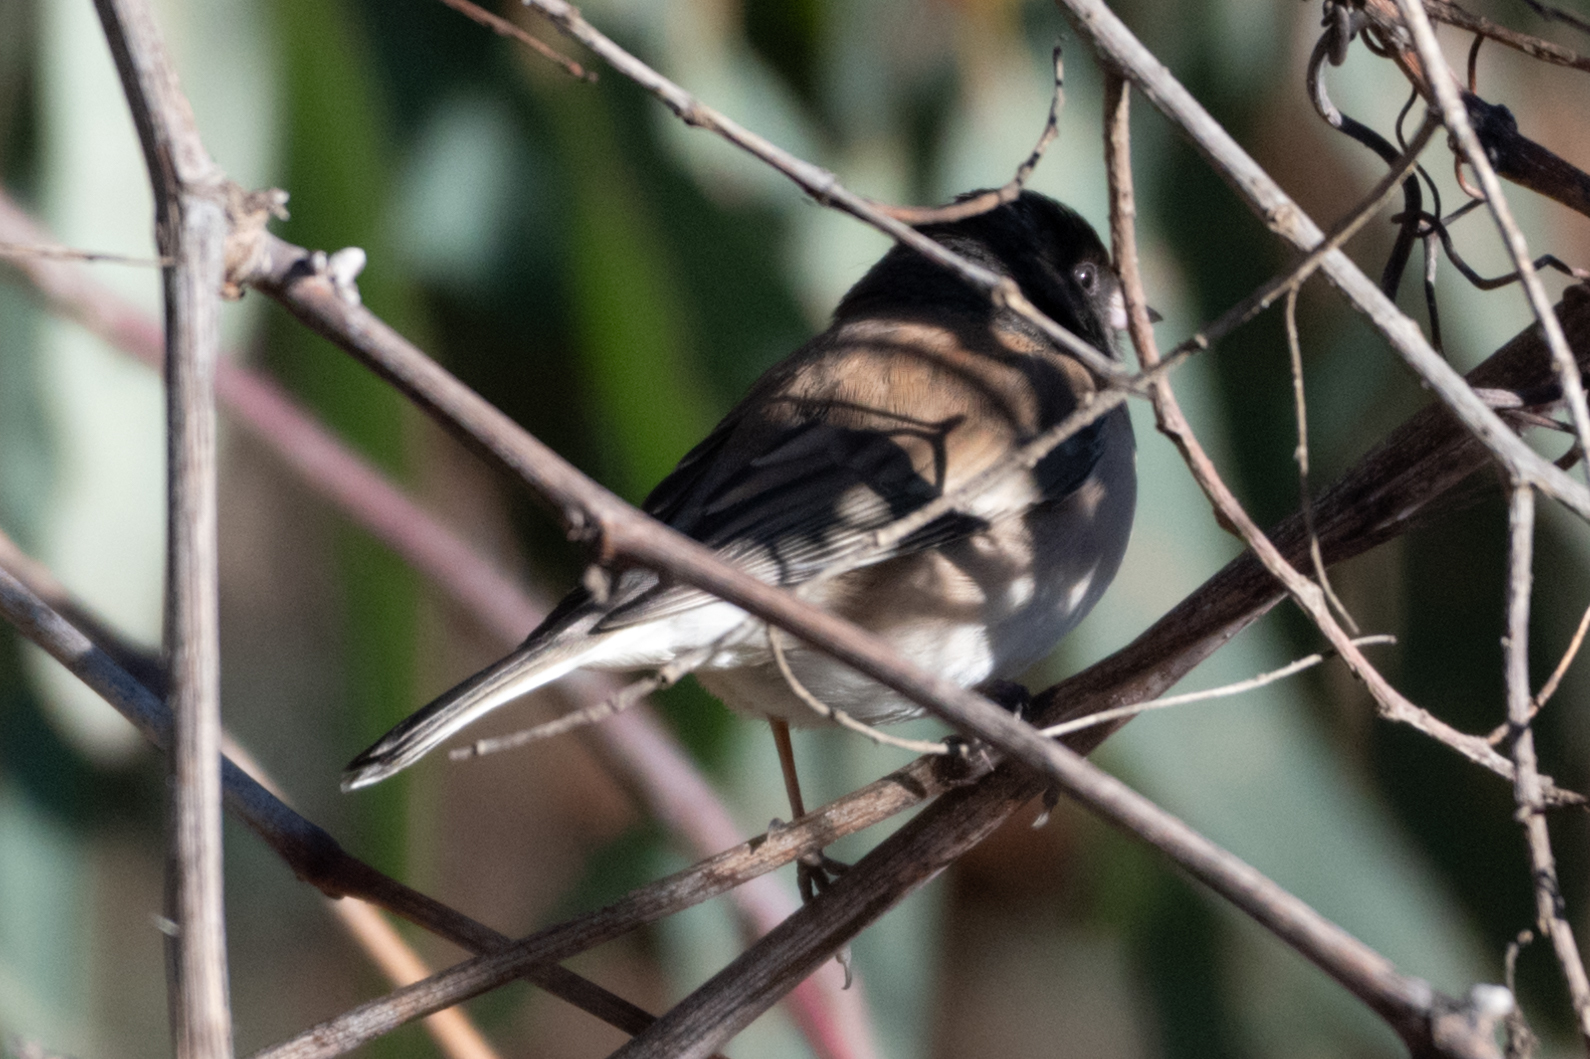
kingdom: Animalia
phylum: Chordata
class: Aves
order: Passeriformes
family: Passerellidae
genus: Junco
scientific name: Junco hyemalis
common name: Dark-eyed junco
